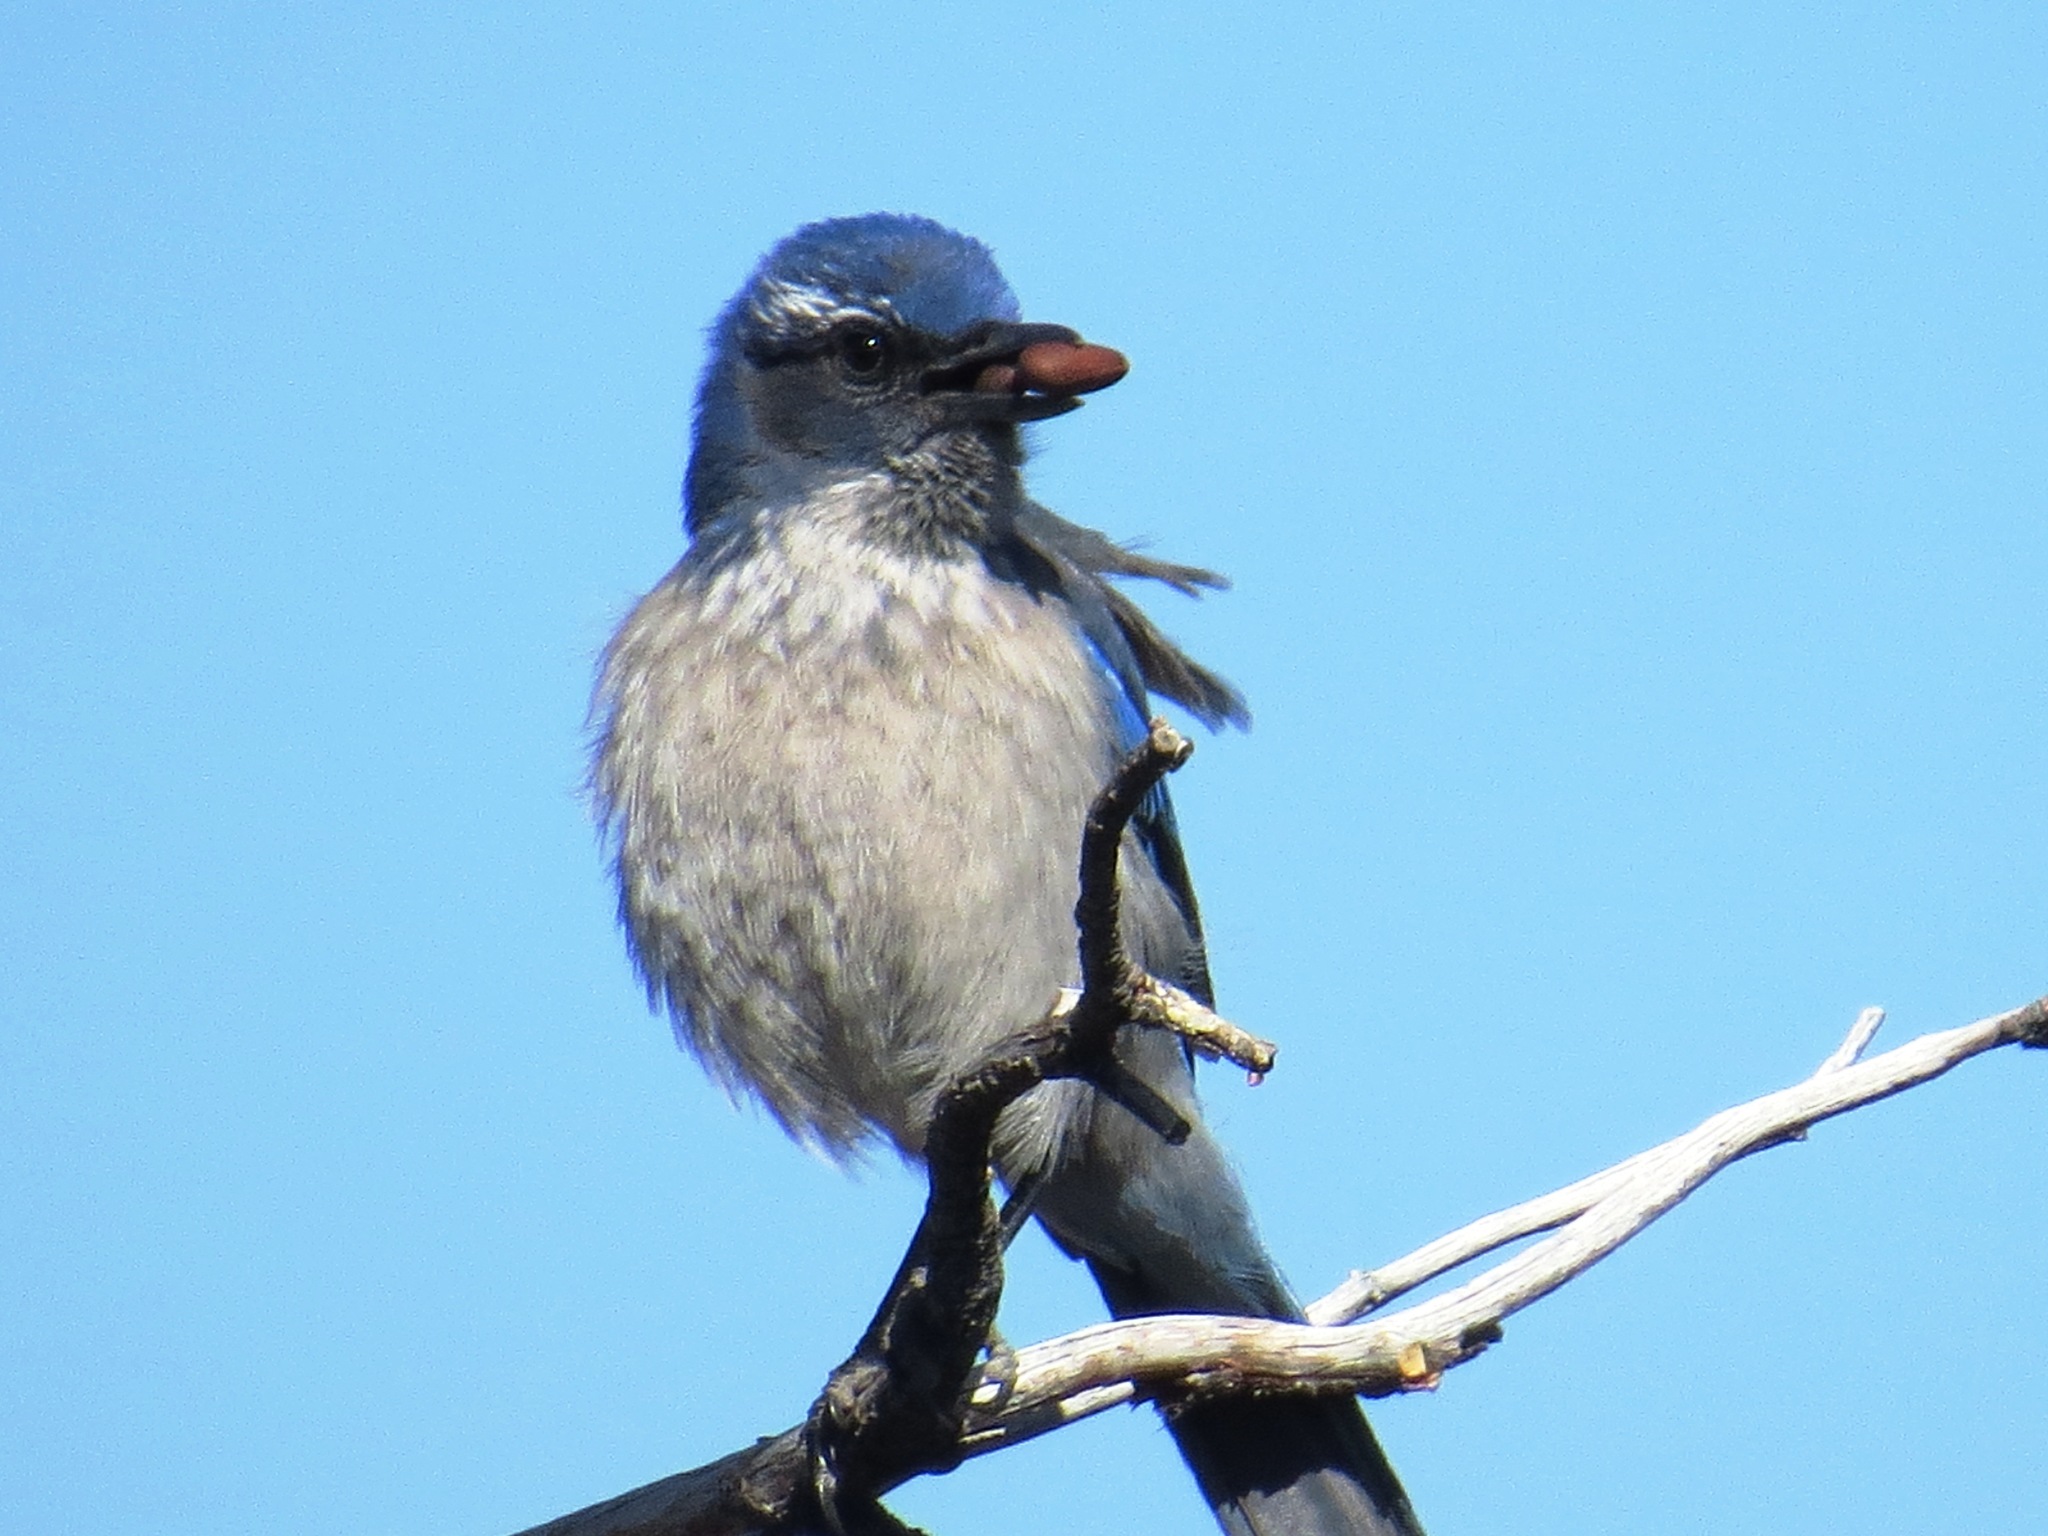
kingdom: Animalia
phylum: Chordata
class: Aves
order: Passeriformes
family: Corvidae
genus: Aphelocoma
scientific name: Aphelocoma woodhouseii
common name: Woodhouse's scrub-jay
